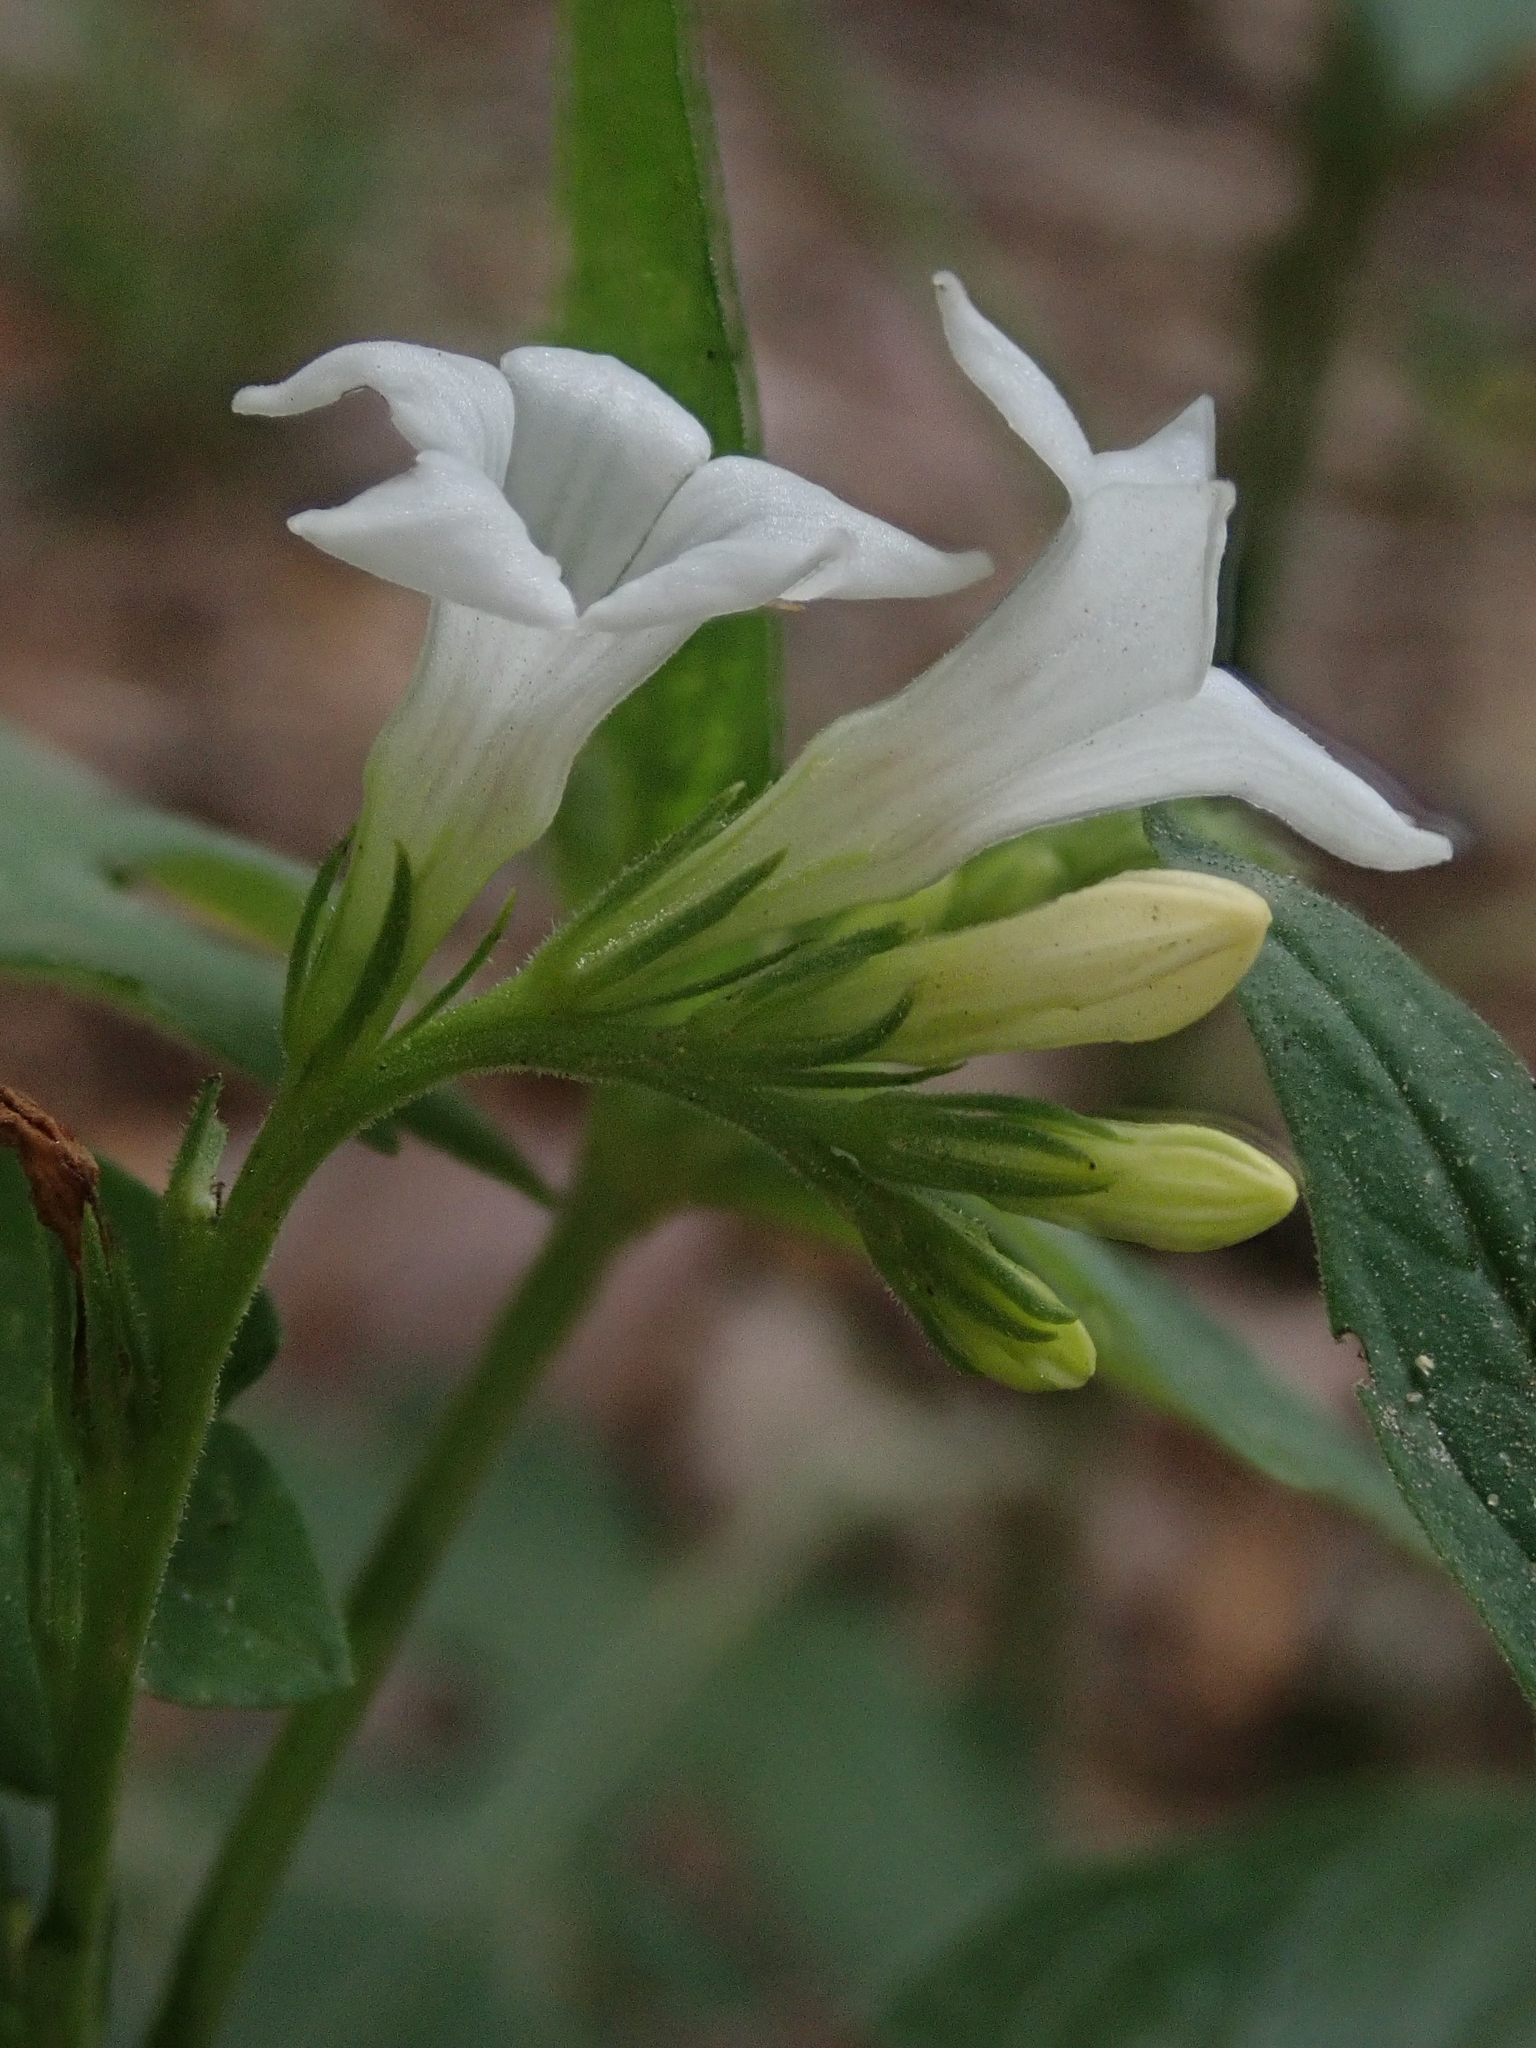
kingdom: Plantae
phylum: Tracheophyta
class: Magnoliopsida
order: Gentianales
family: Loganiaceae
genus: Spigelia
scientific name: Spigelia humboldtiana
